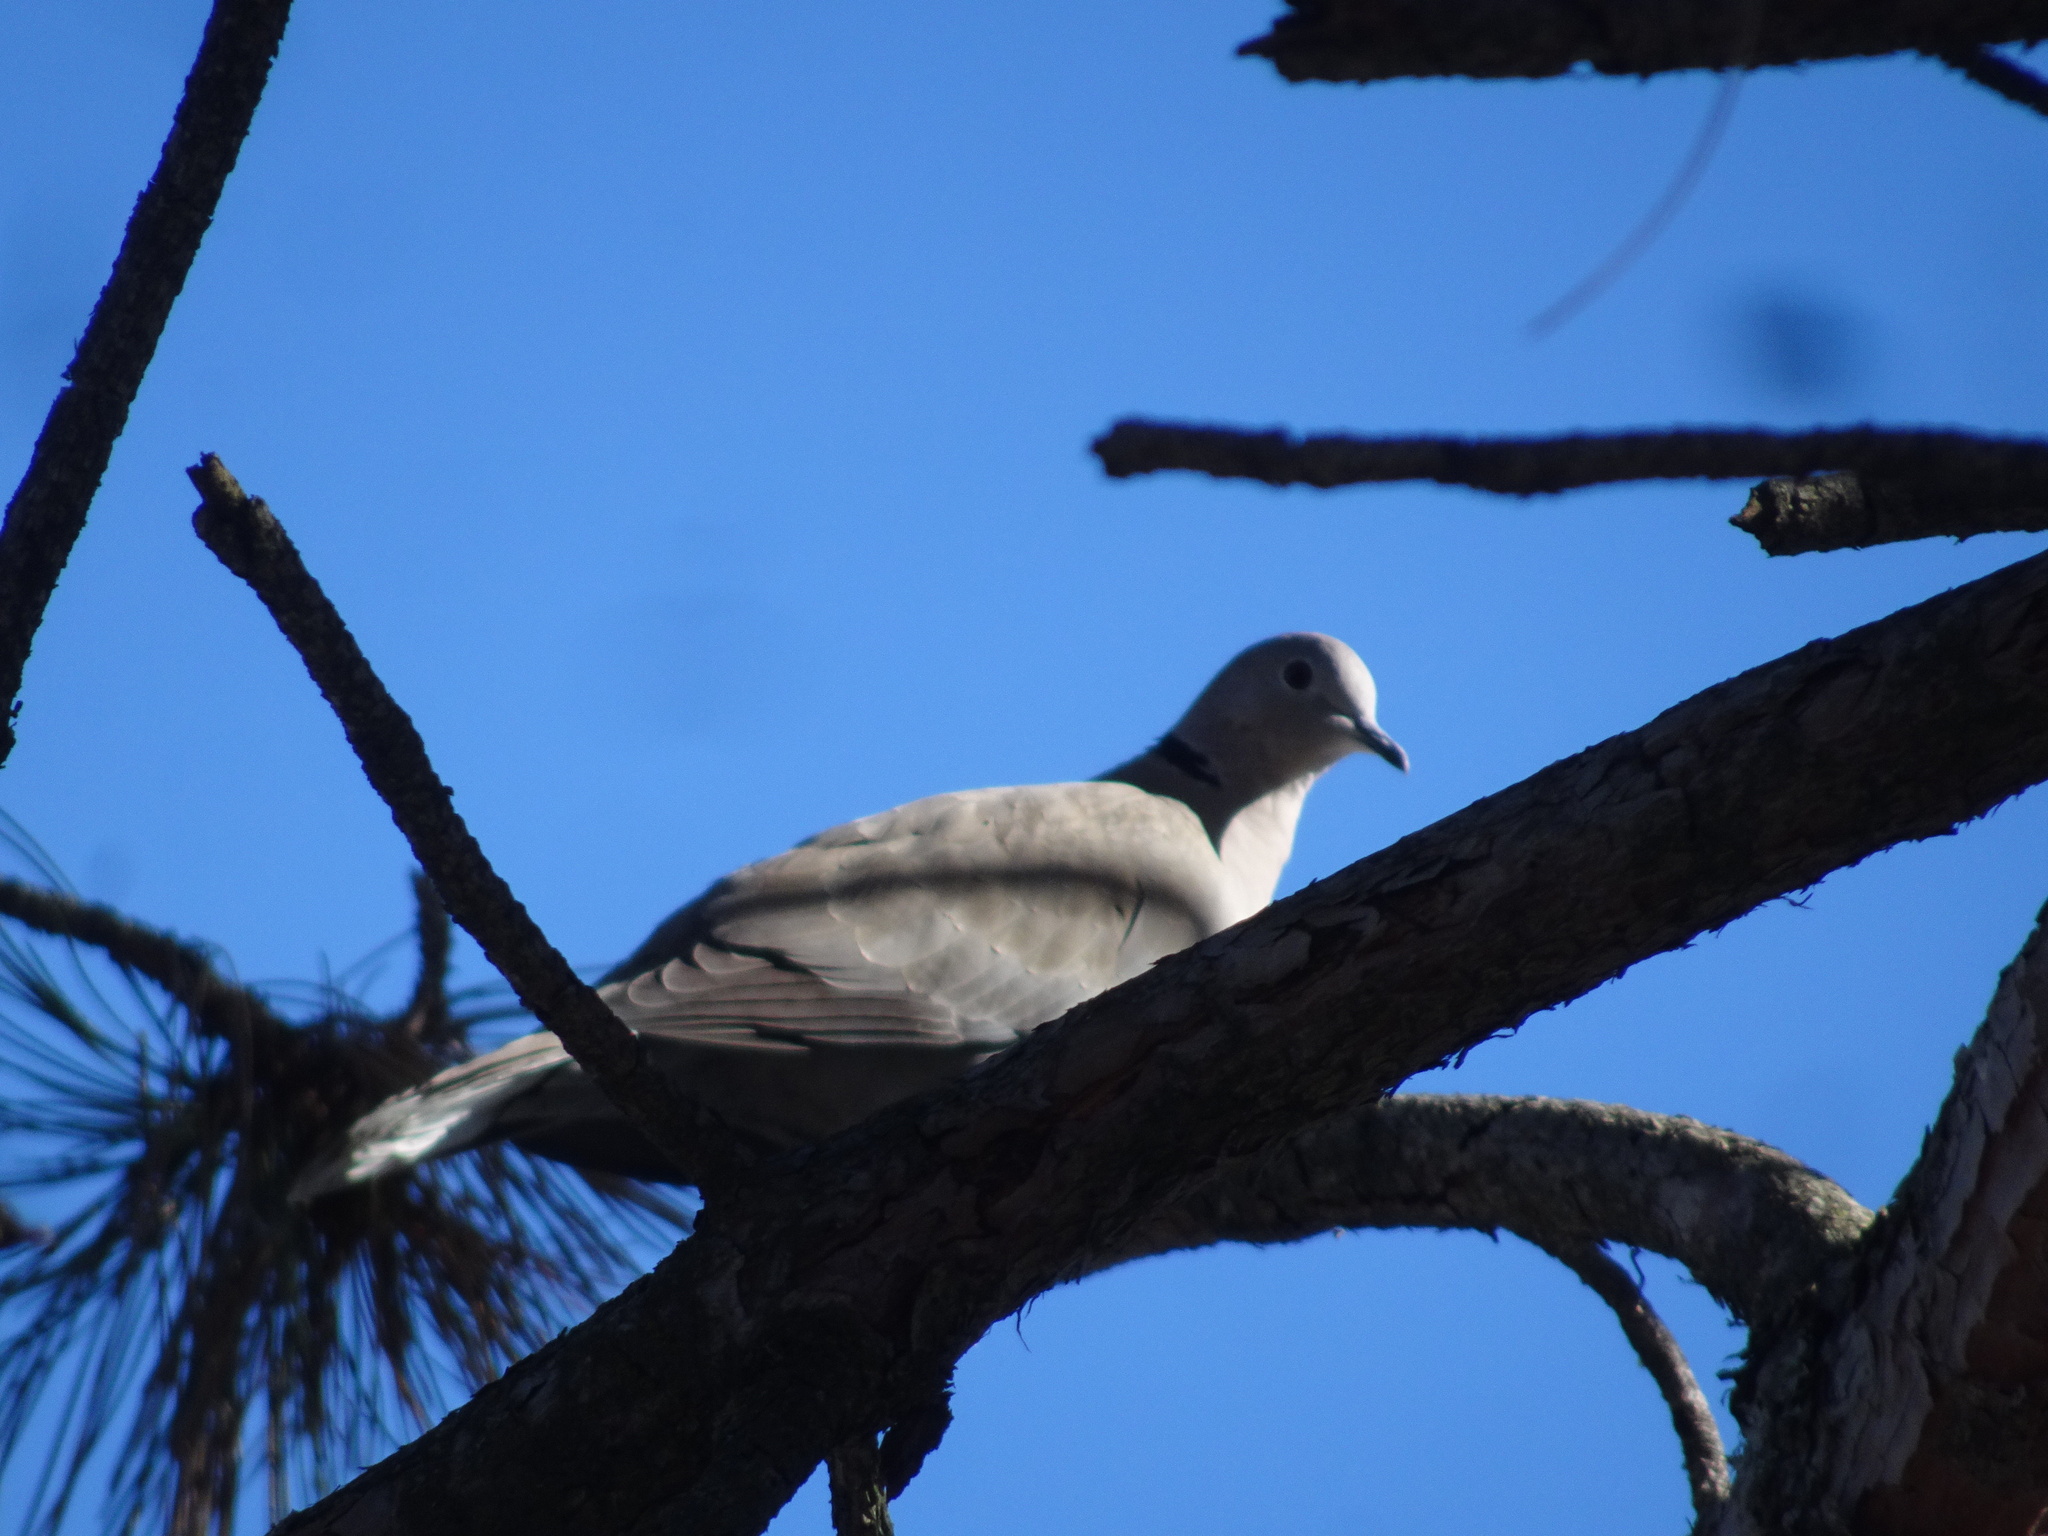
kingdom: Animalia
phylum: Chordata
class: Aves
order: Columbiformes
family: Columbidae
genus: Streptopelia
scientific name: Streptopelia decaocto
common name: Eurasian collared dove
